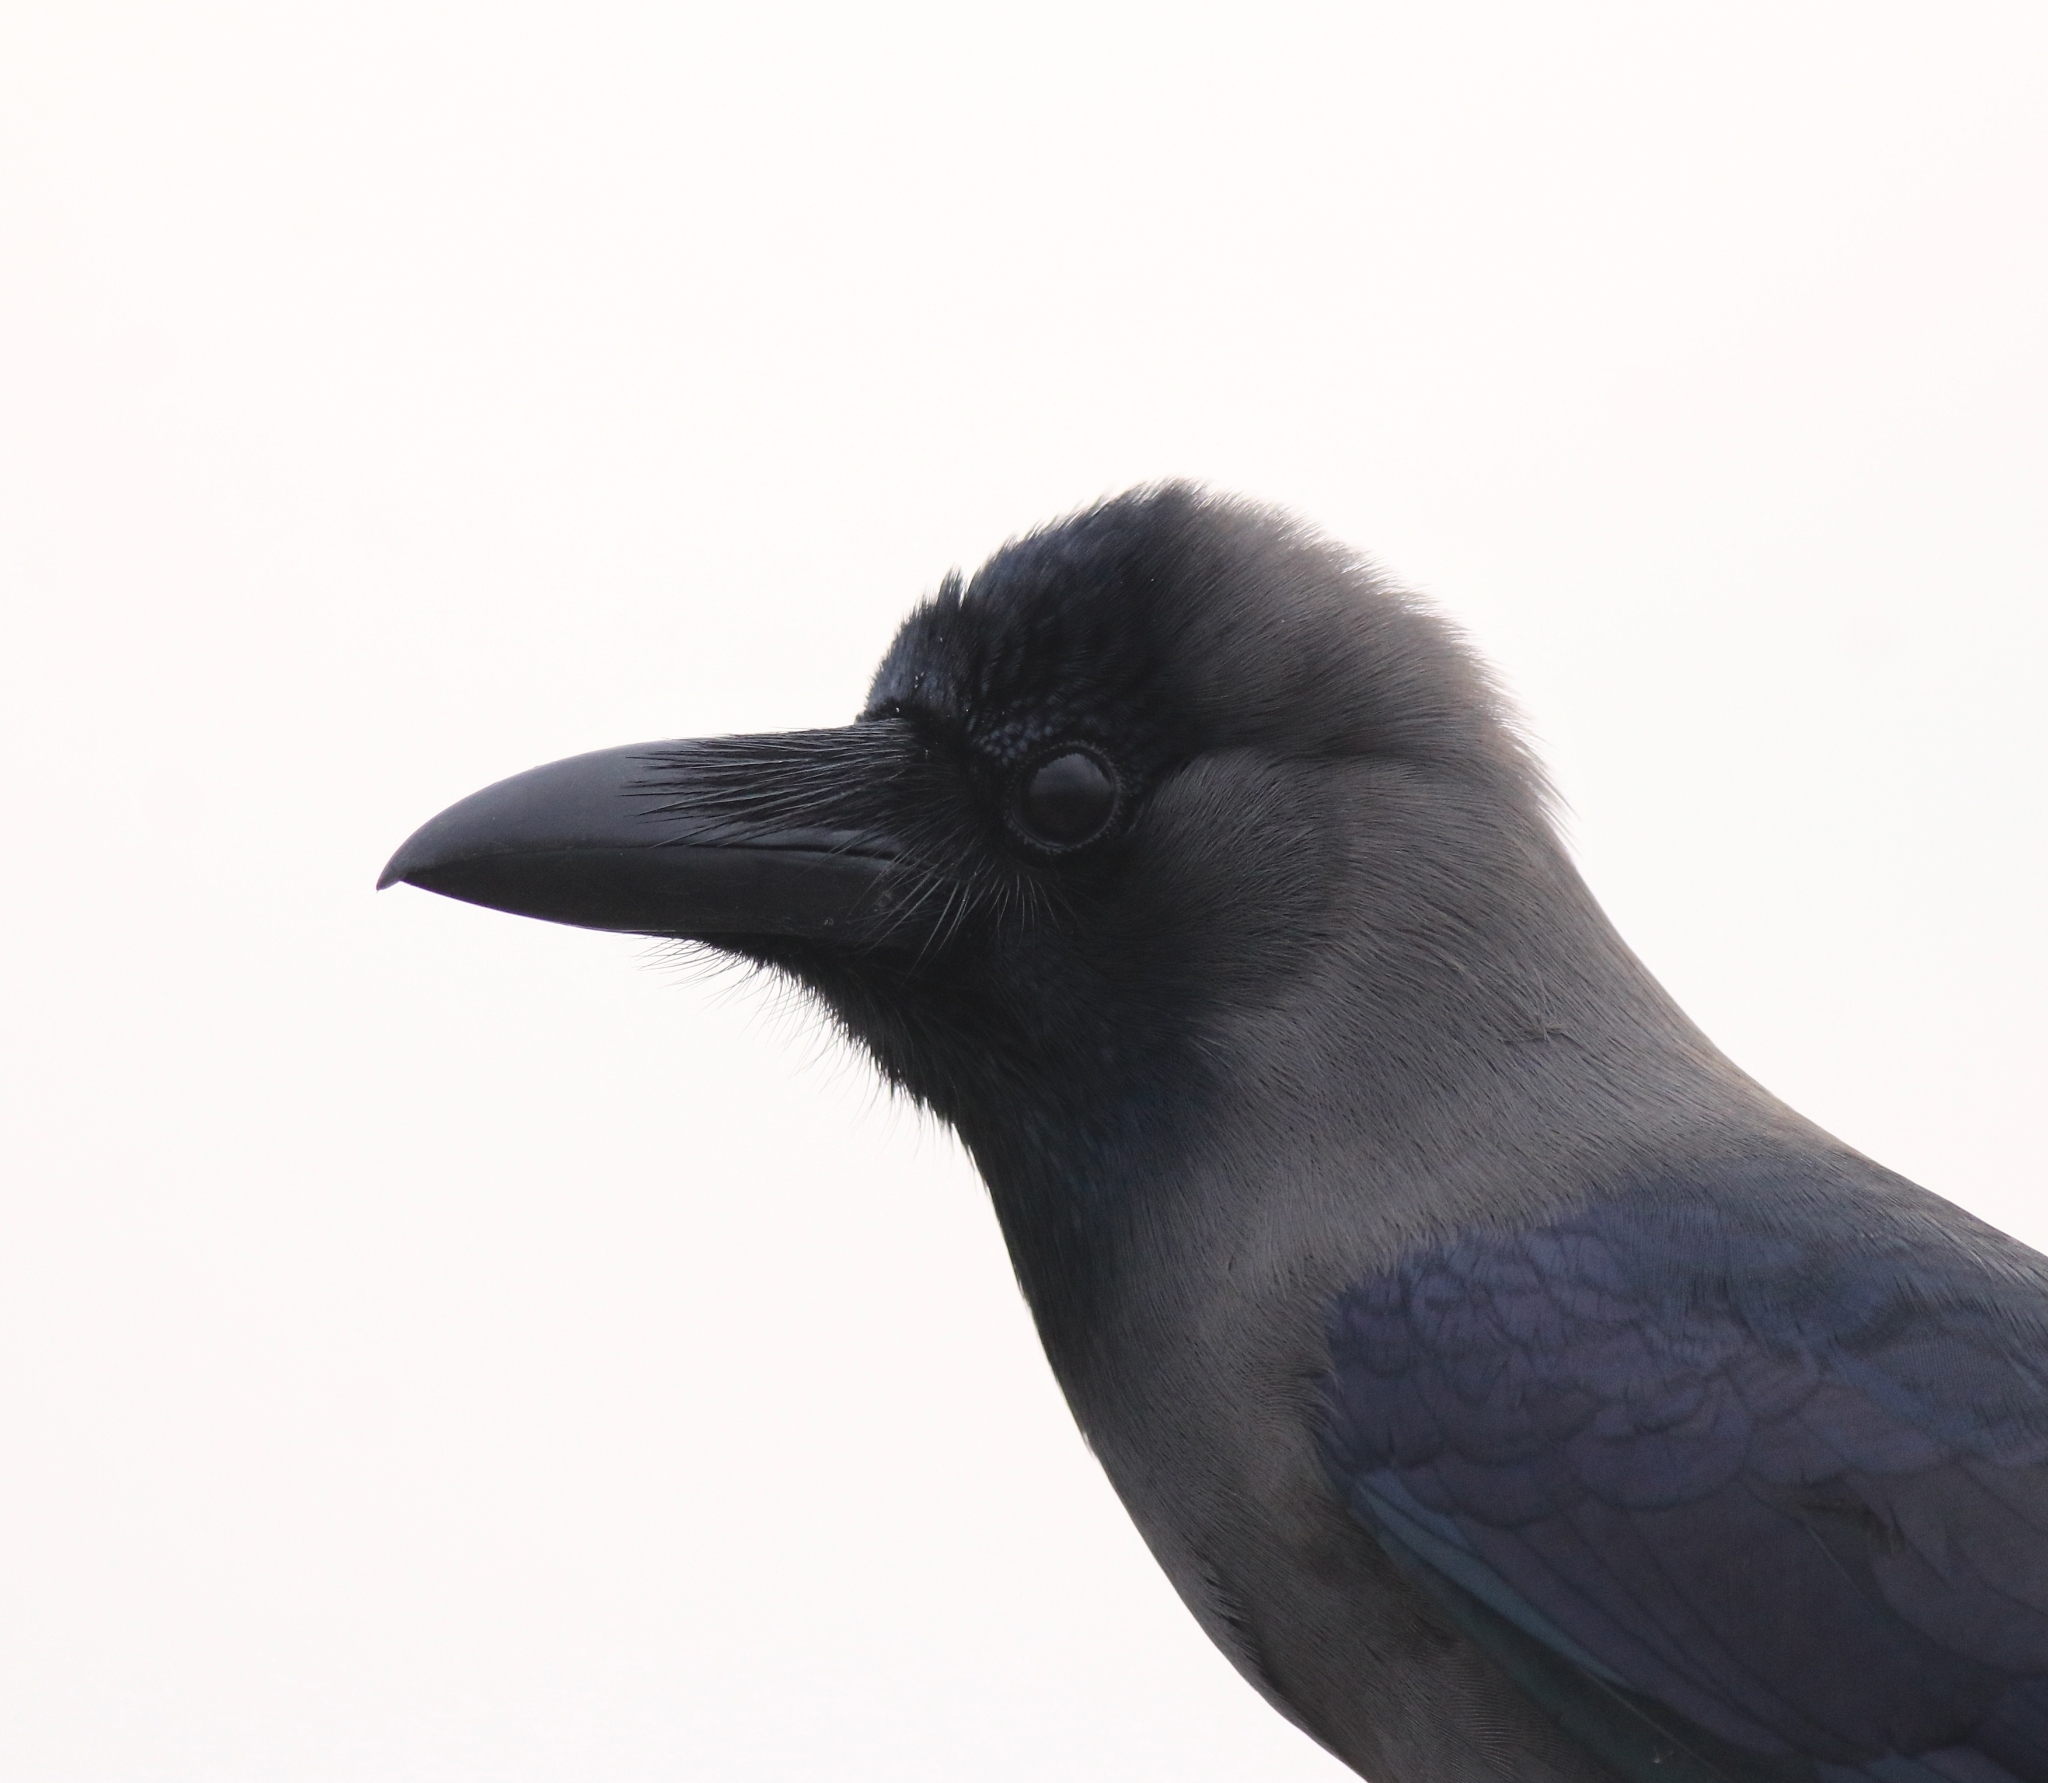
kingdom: Animalia
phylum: Chordata
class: Aves
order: Passeriformes
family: Corvidae
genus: Corvus
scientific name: Corvus splendens
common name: House crow
